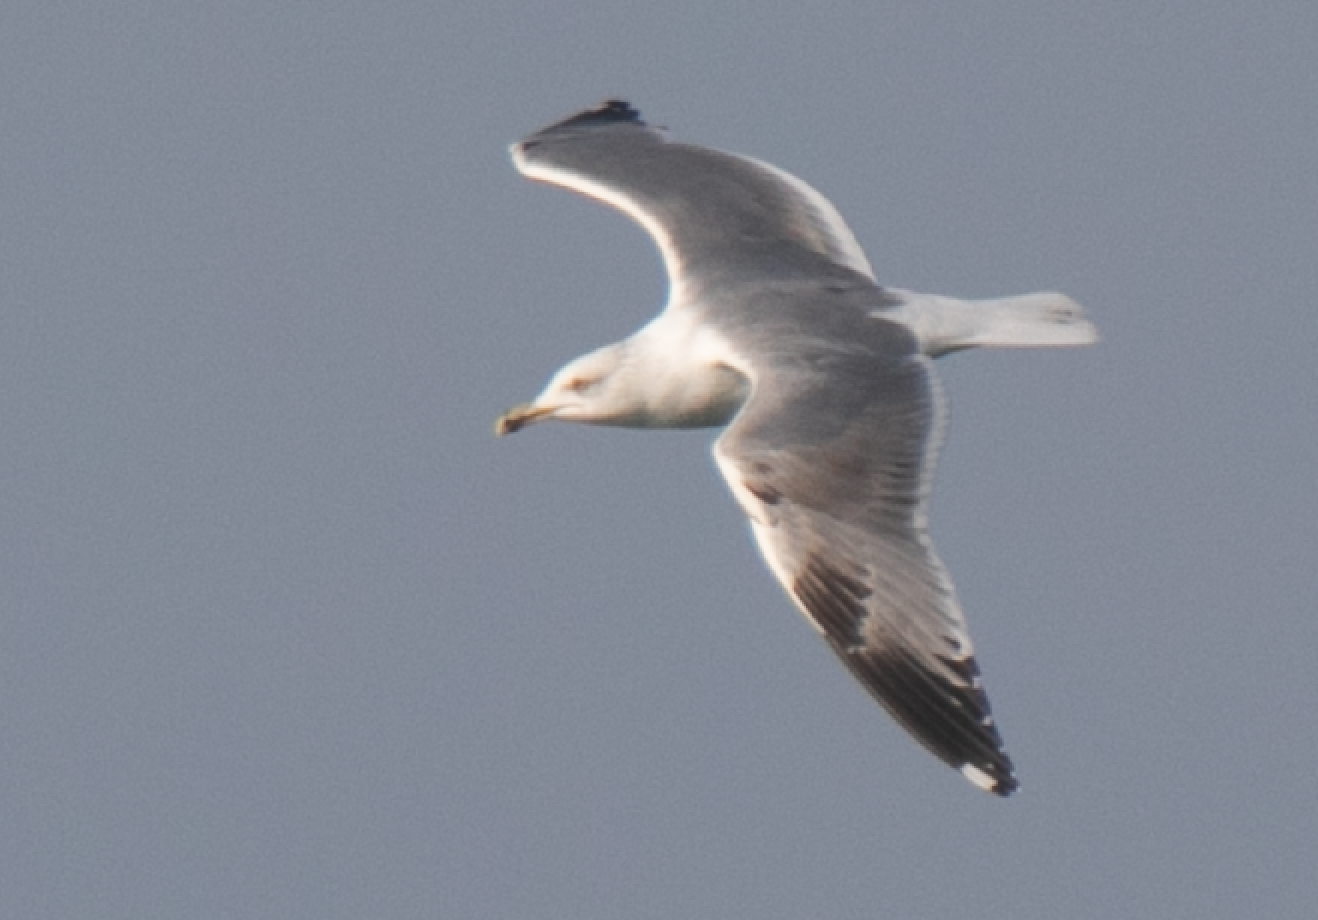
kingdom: Animalia
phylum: Chordata
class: Aves
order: Charadriiformes
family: Laridae
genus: Larus
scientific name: Larus michahellis
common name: Yellow-legged gull
